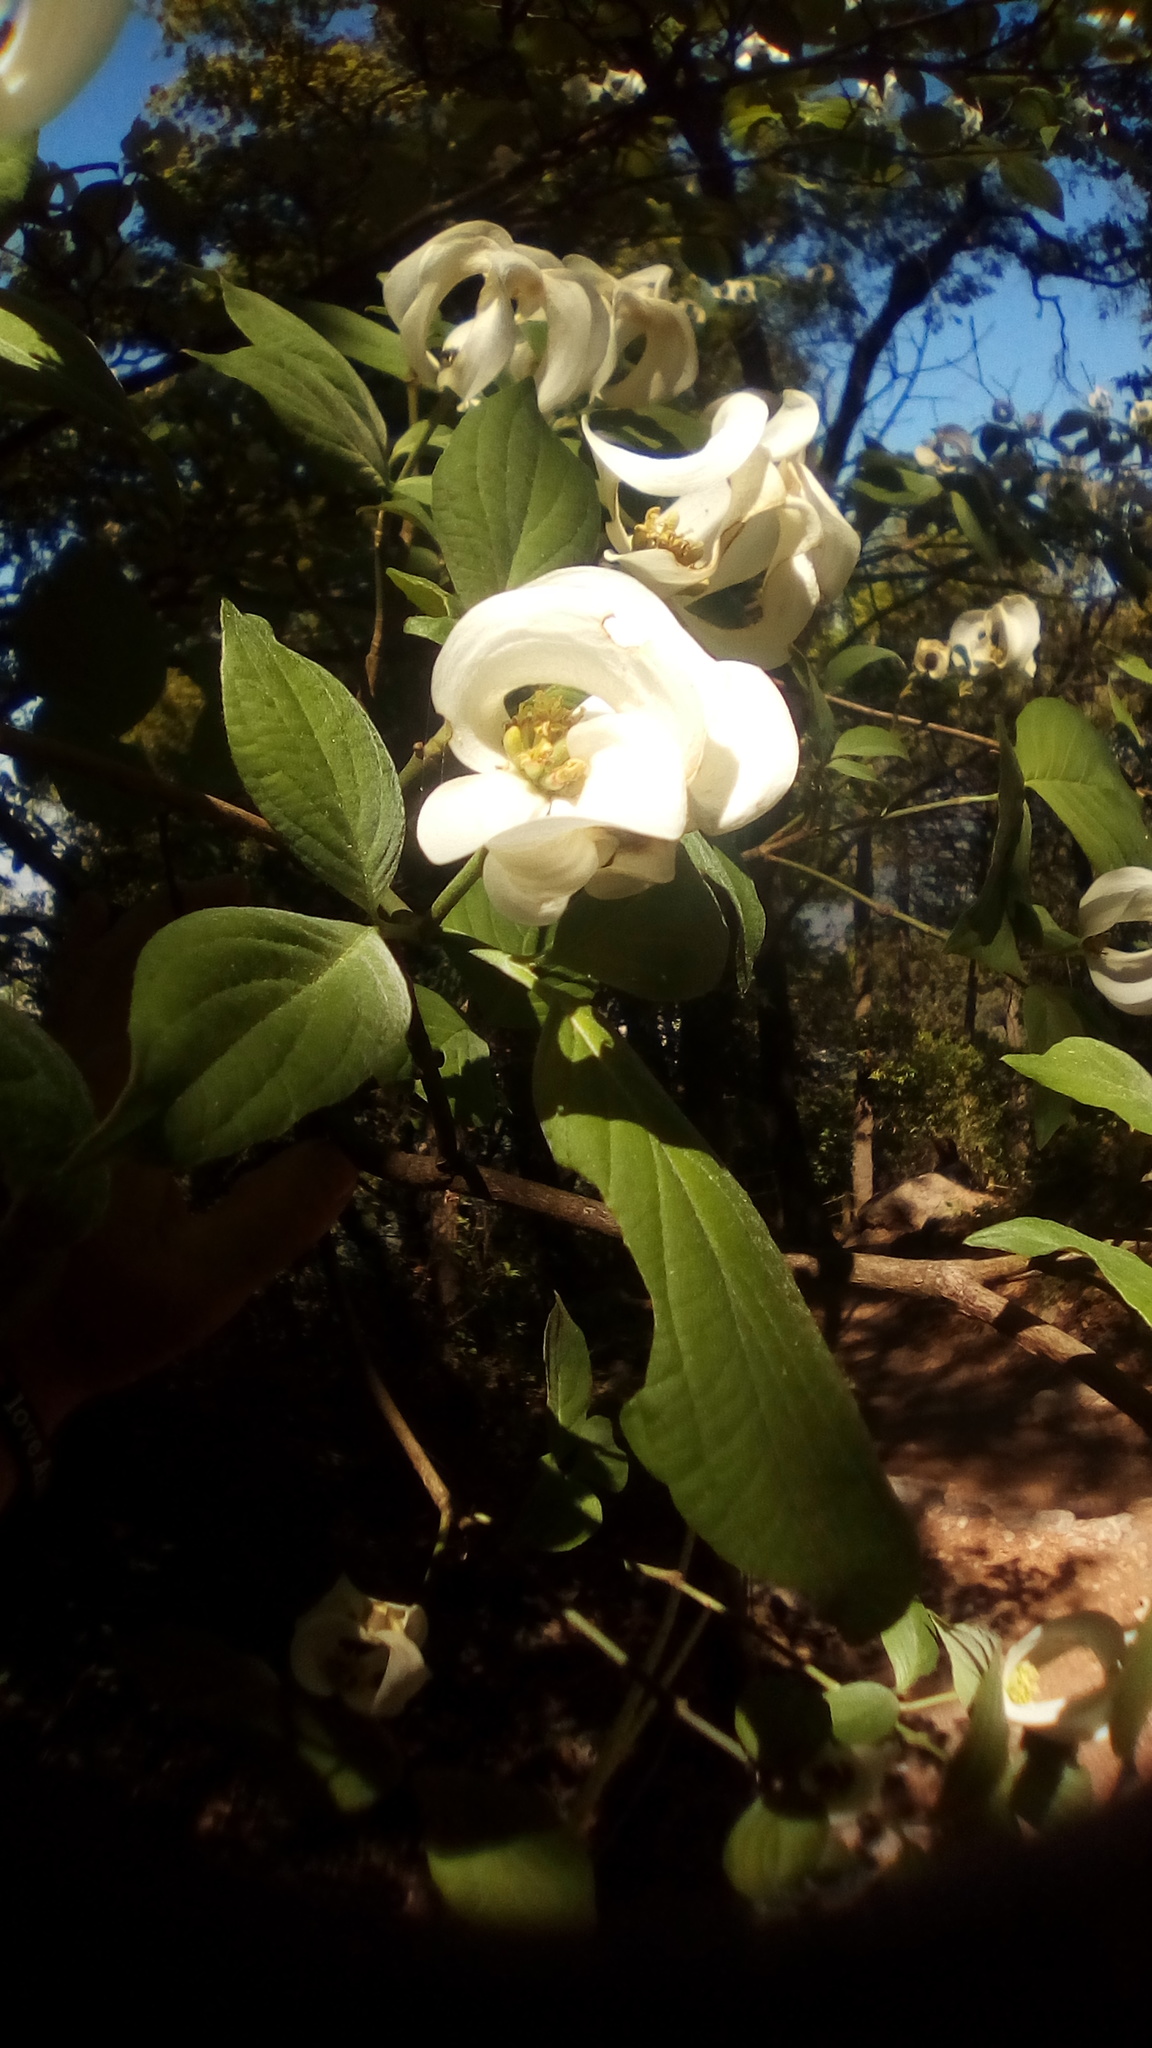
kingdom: Plantae
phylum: Tracheophyta
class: Magnoliopsida
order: Cornales
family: Cornaceae
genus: Cornus
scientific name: Cornus florida
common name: Flowering dogwood
